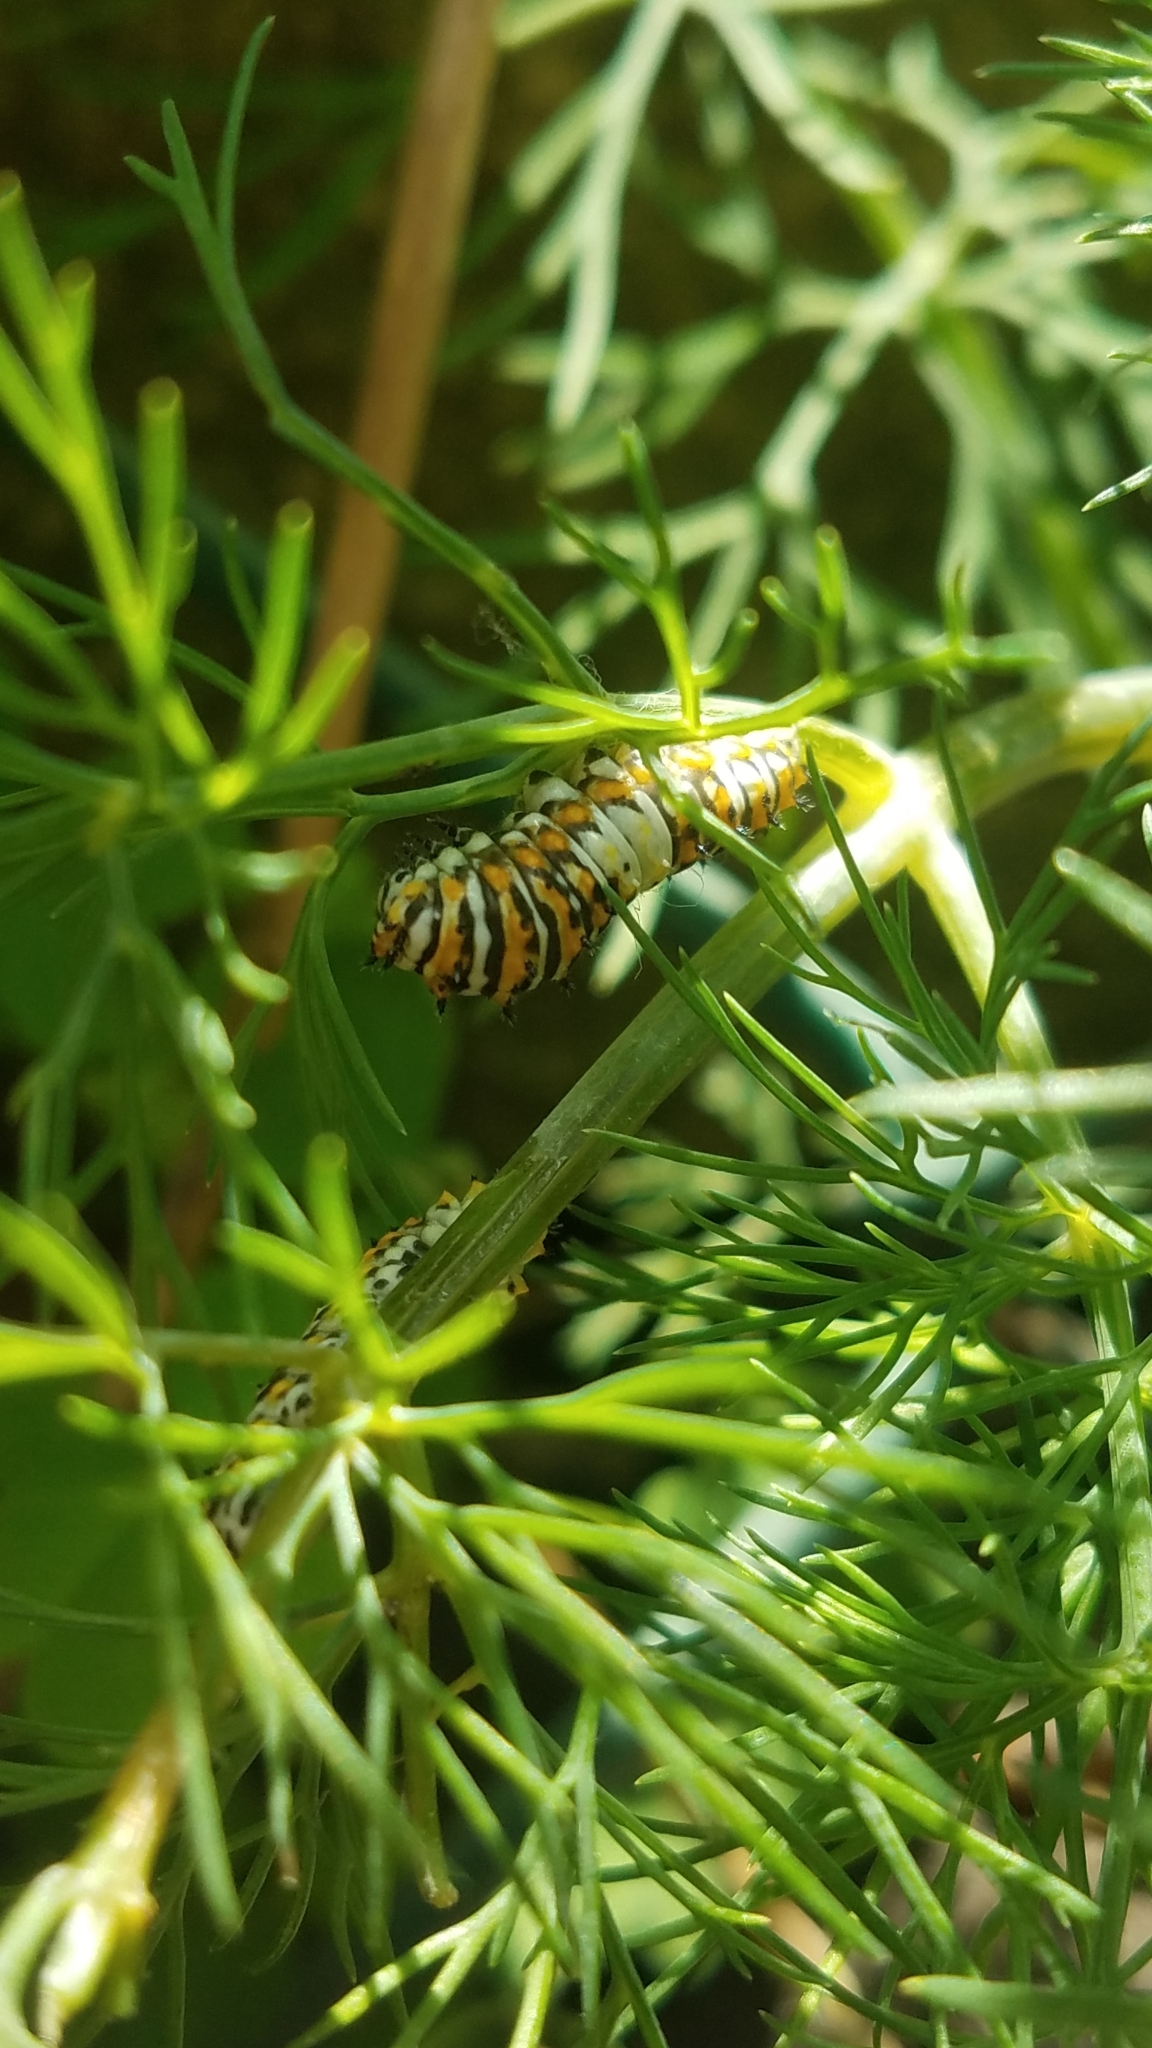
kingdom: Animalia
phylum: Arthropoda
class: Insecta
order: Lepidoptera
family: Papilionidae
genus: Papilio
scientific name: Papilio polyxenes
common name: Black swallowtail
